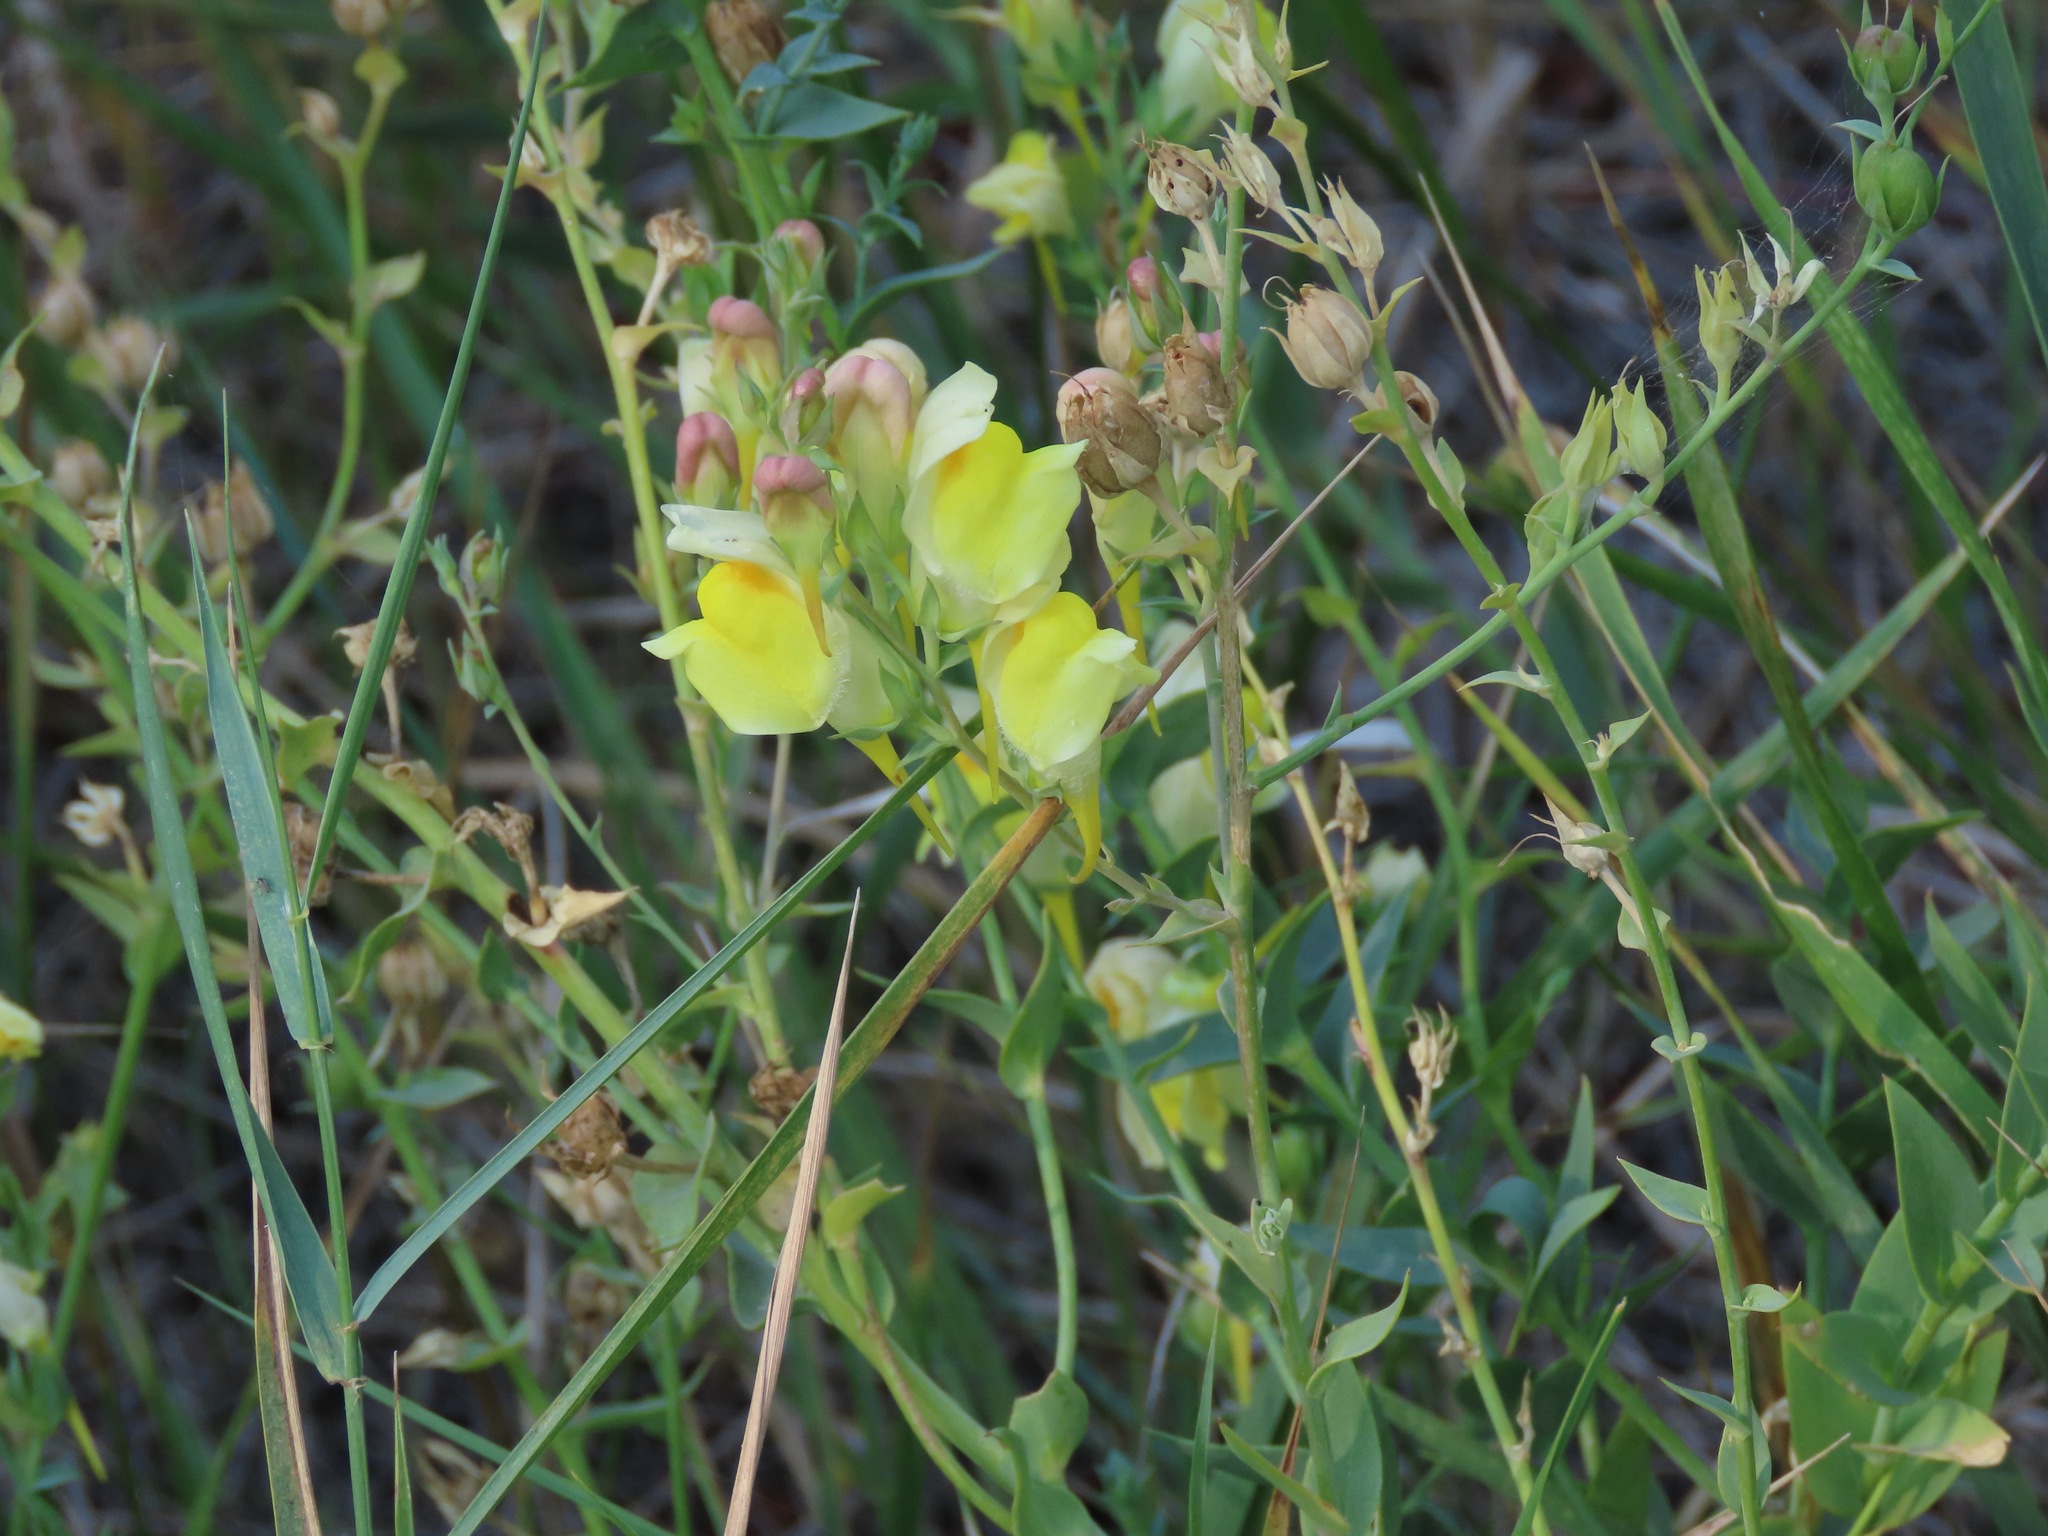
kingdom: Plantae
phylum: Tracheophyta
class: Magnoliopsida
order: Lamiales
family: Plantaginaceae
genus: Linaria
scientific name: Linaria dalmatica
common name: Dalmatian toadflax
